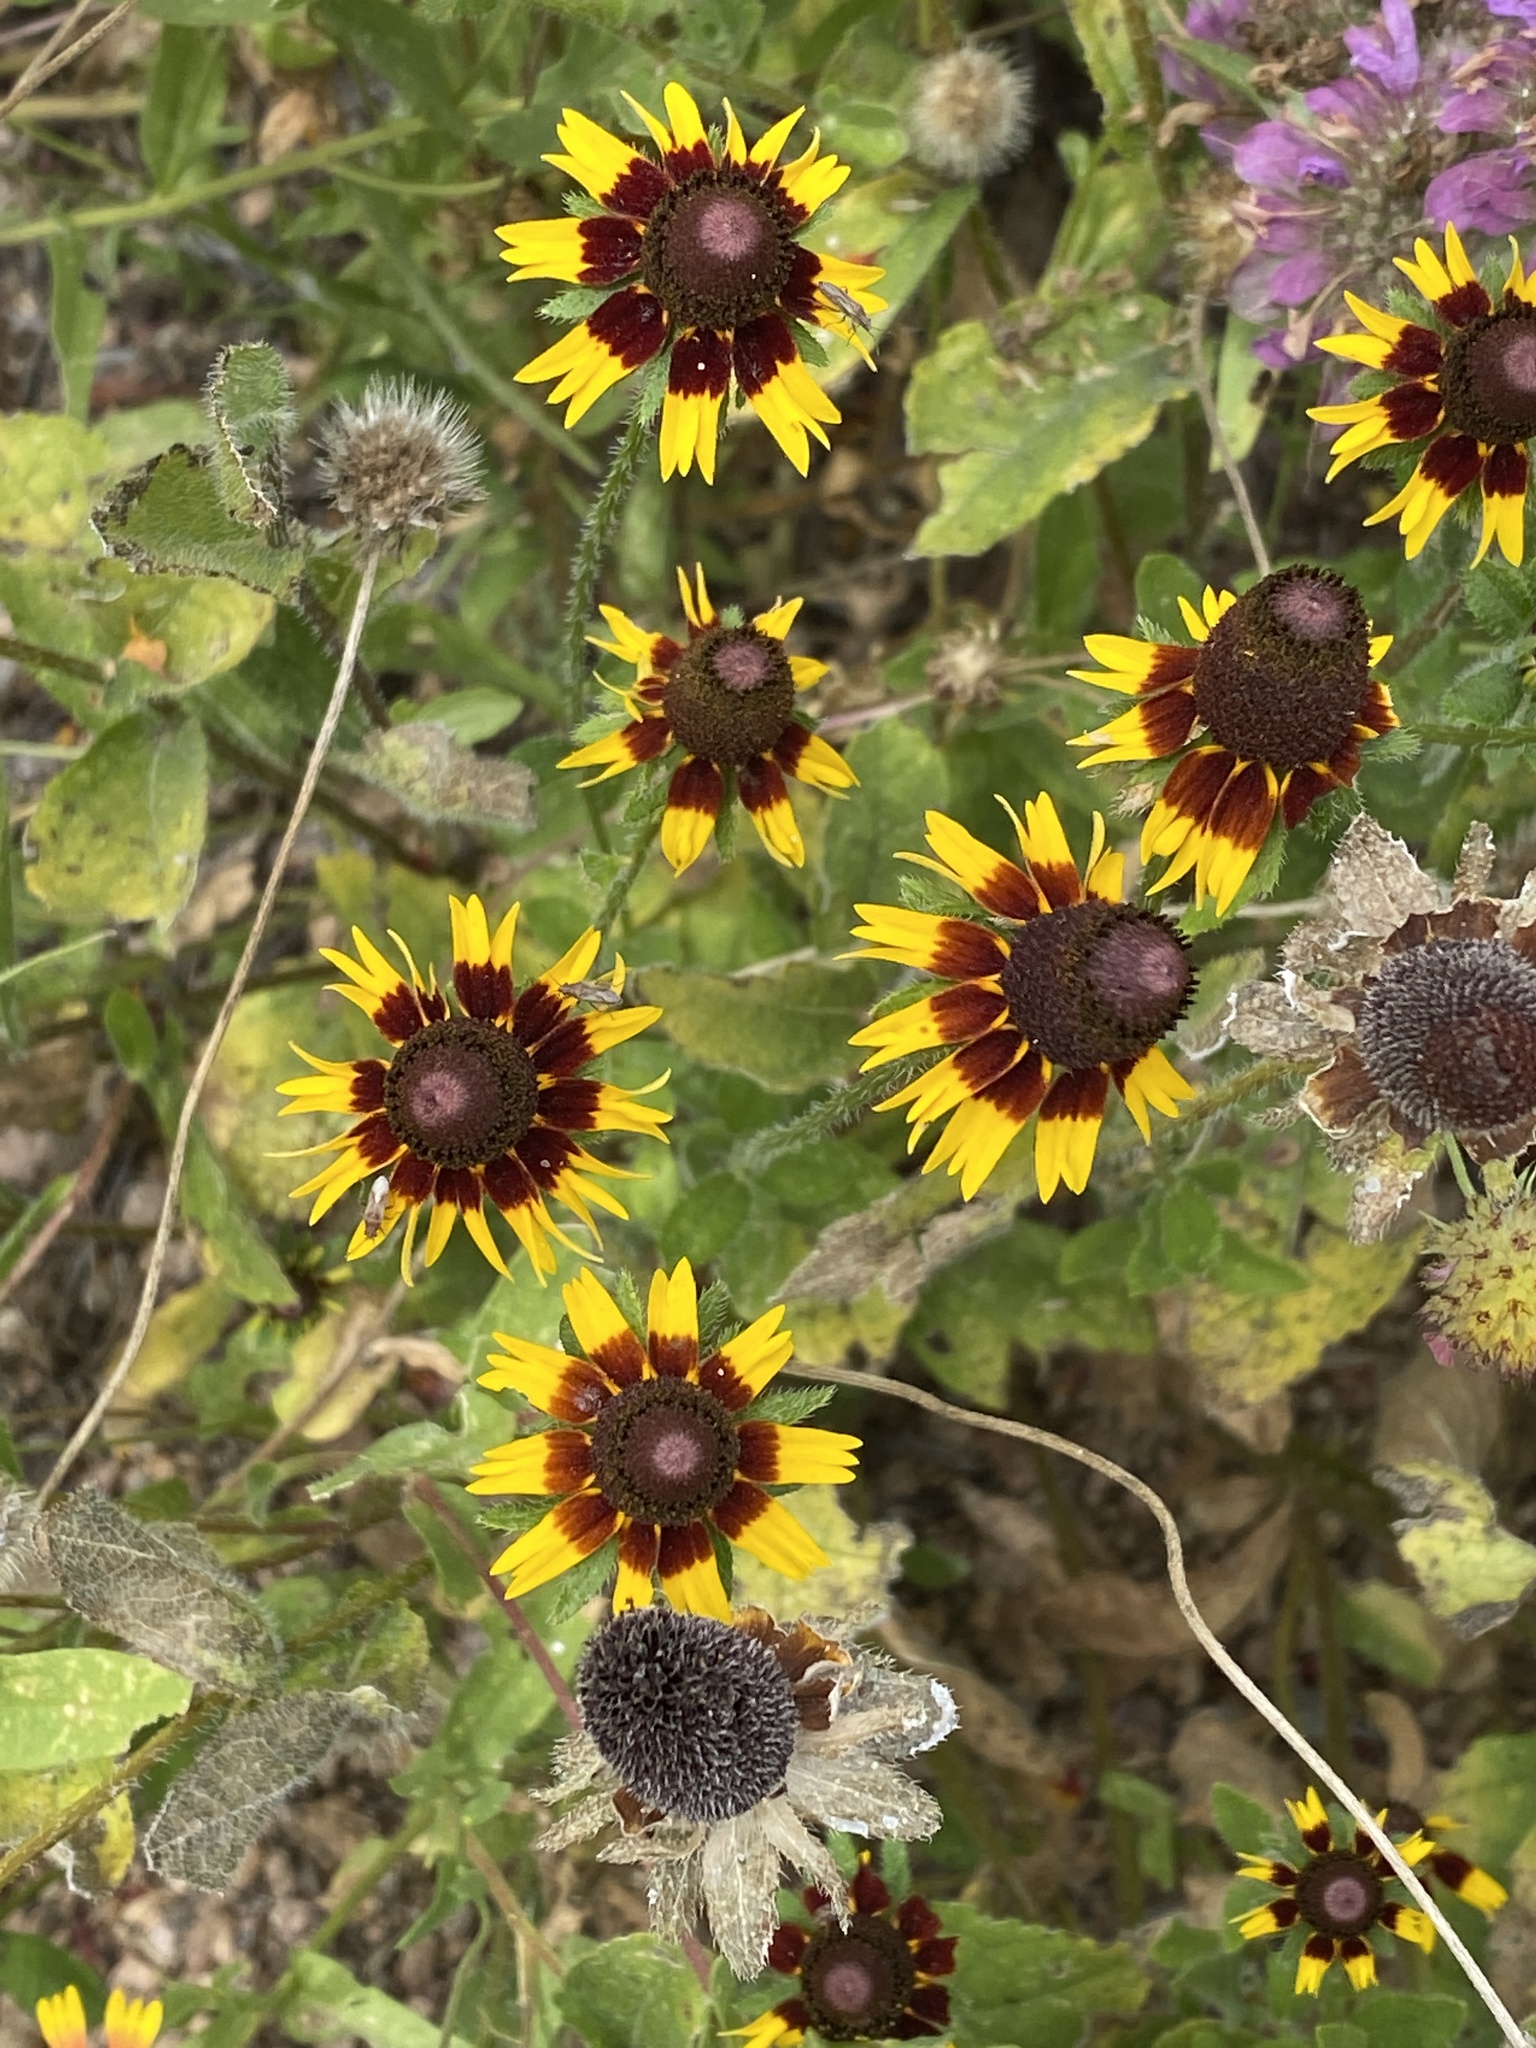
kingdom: Plantae
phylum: Tracheophyta
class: Magnoliopsida
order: Asterales
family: Asteraceae
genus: Rudbeckia
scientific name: Rudbeckia hirta
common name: Black-eyed-susan
